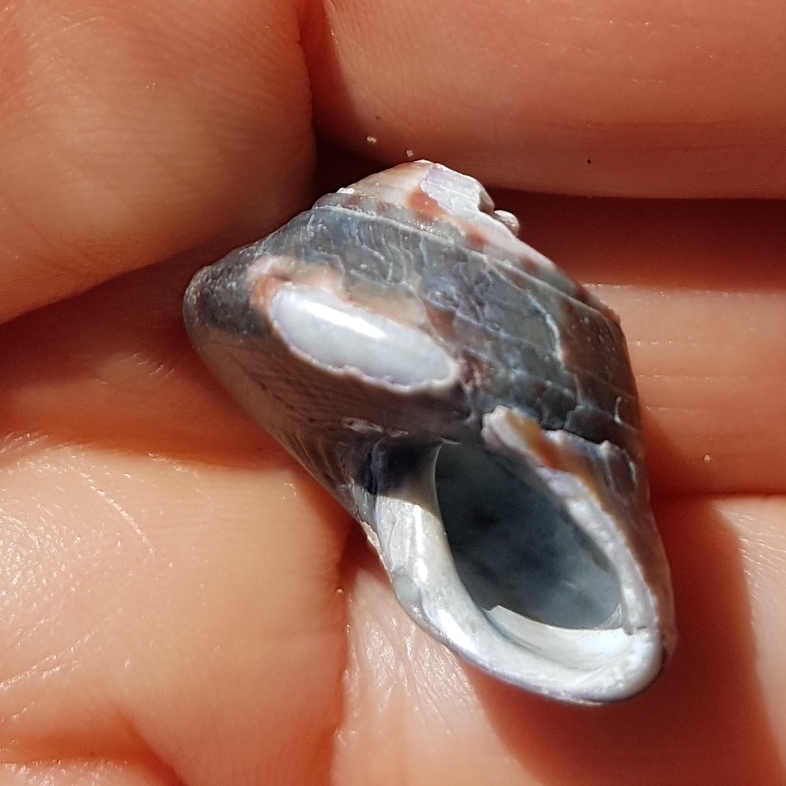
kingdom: Animalia
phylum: Mollusca
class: Gastropoda
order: Trochida
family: Calliostomatidae
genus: Calliostoma
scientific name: Calliostoma zizyphinum
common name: Painted top shell
